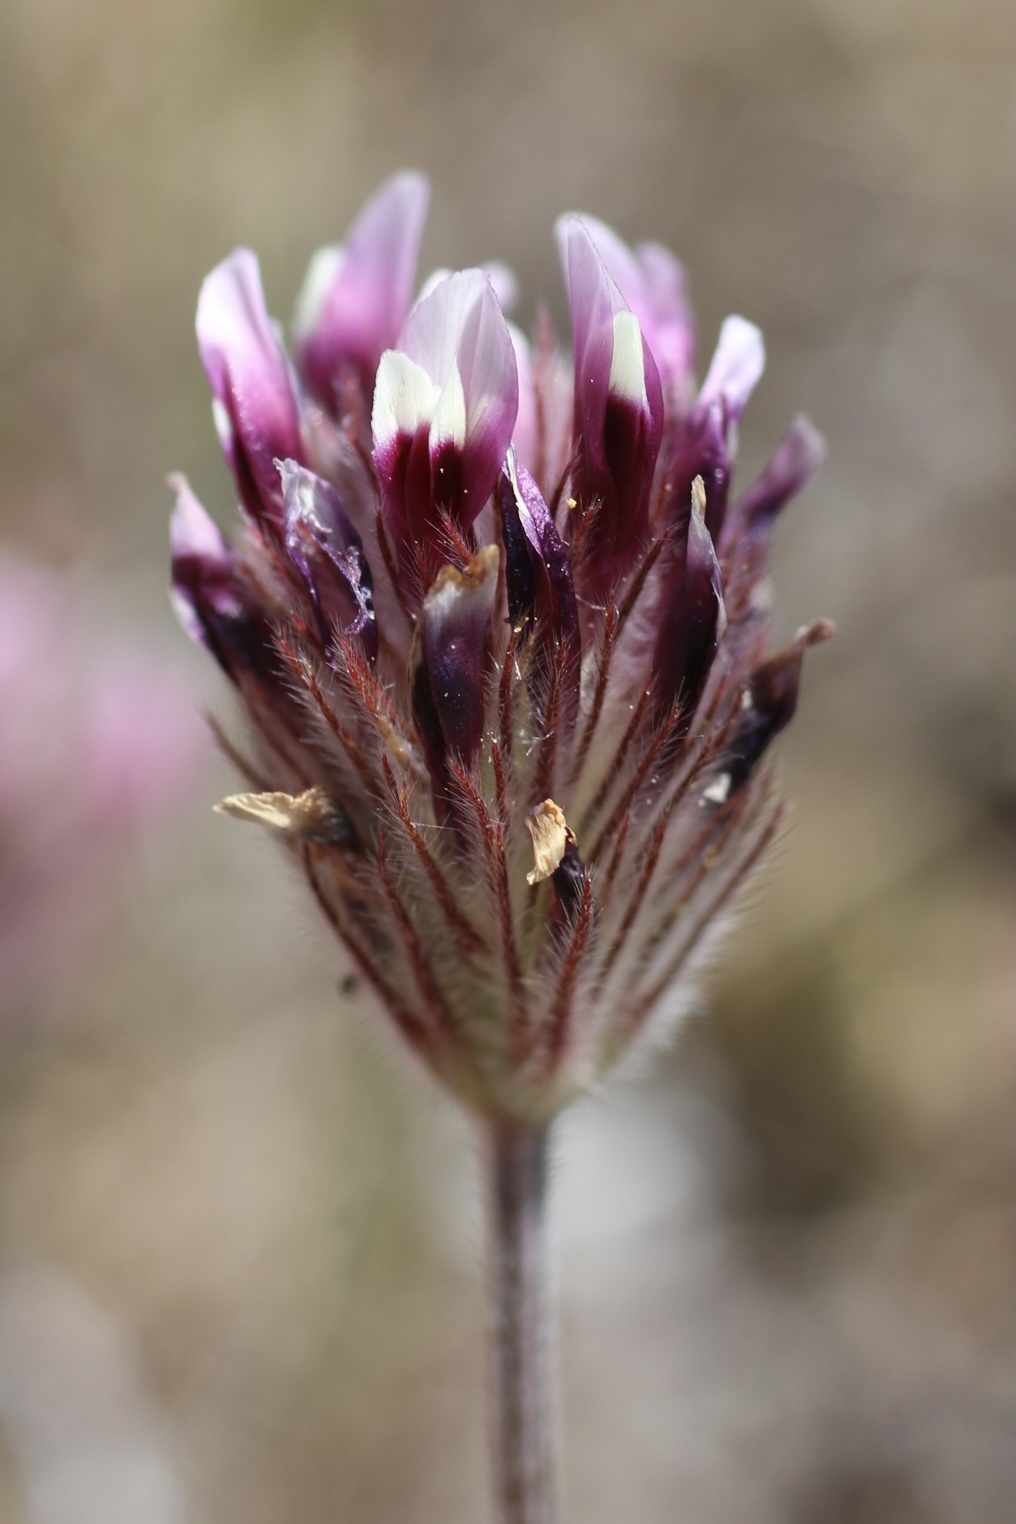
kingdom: Plantae
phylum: Tracheophyta
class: Magnoliopsida
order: Fabales
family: Fabaceae
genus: Trifolium
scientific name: Trifolium dichotomum
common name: Branched indian clover
